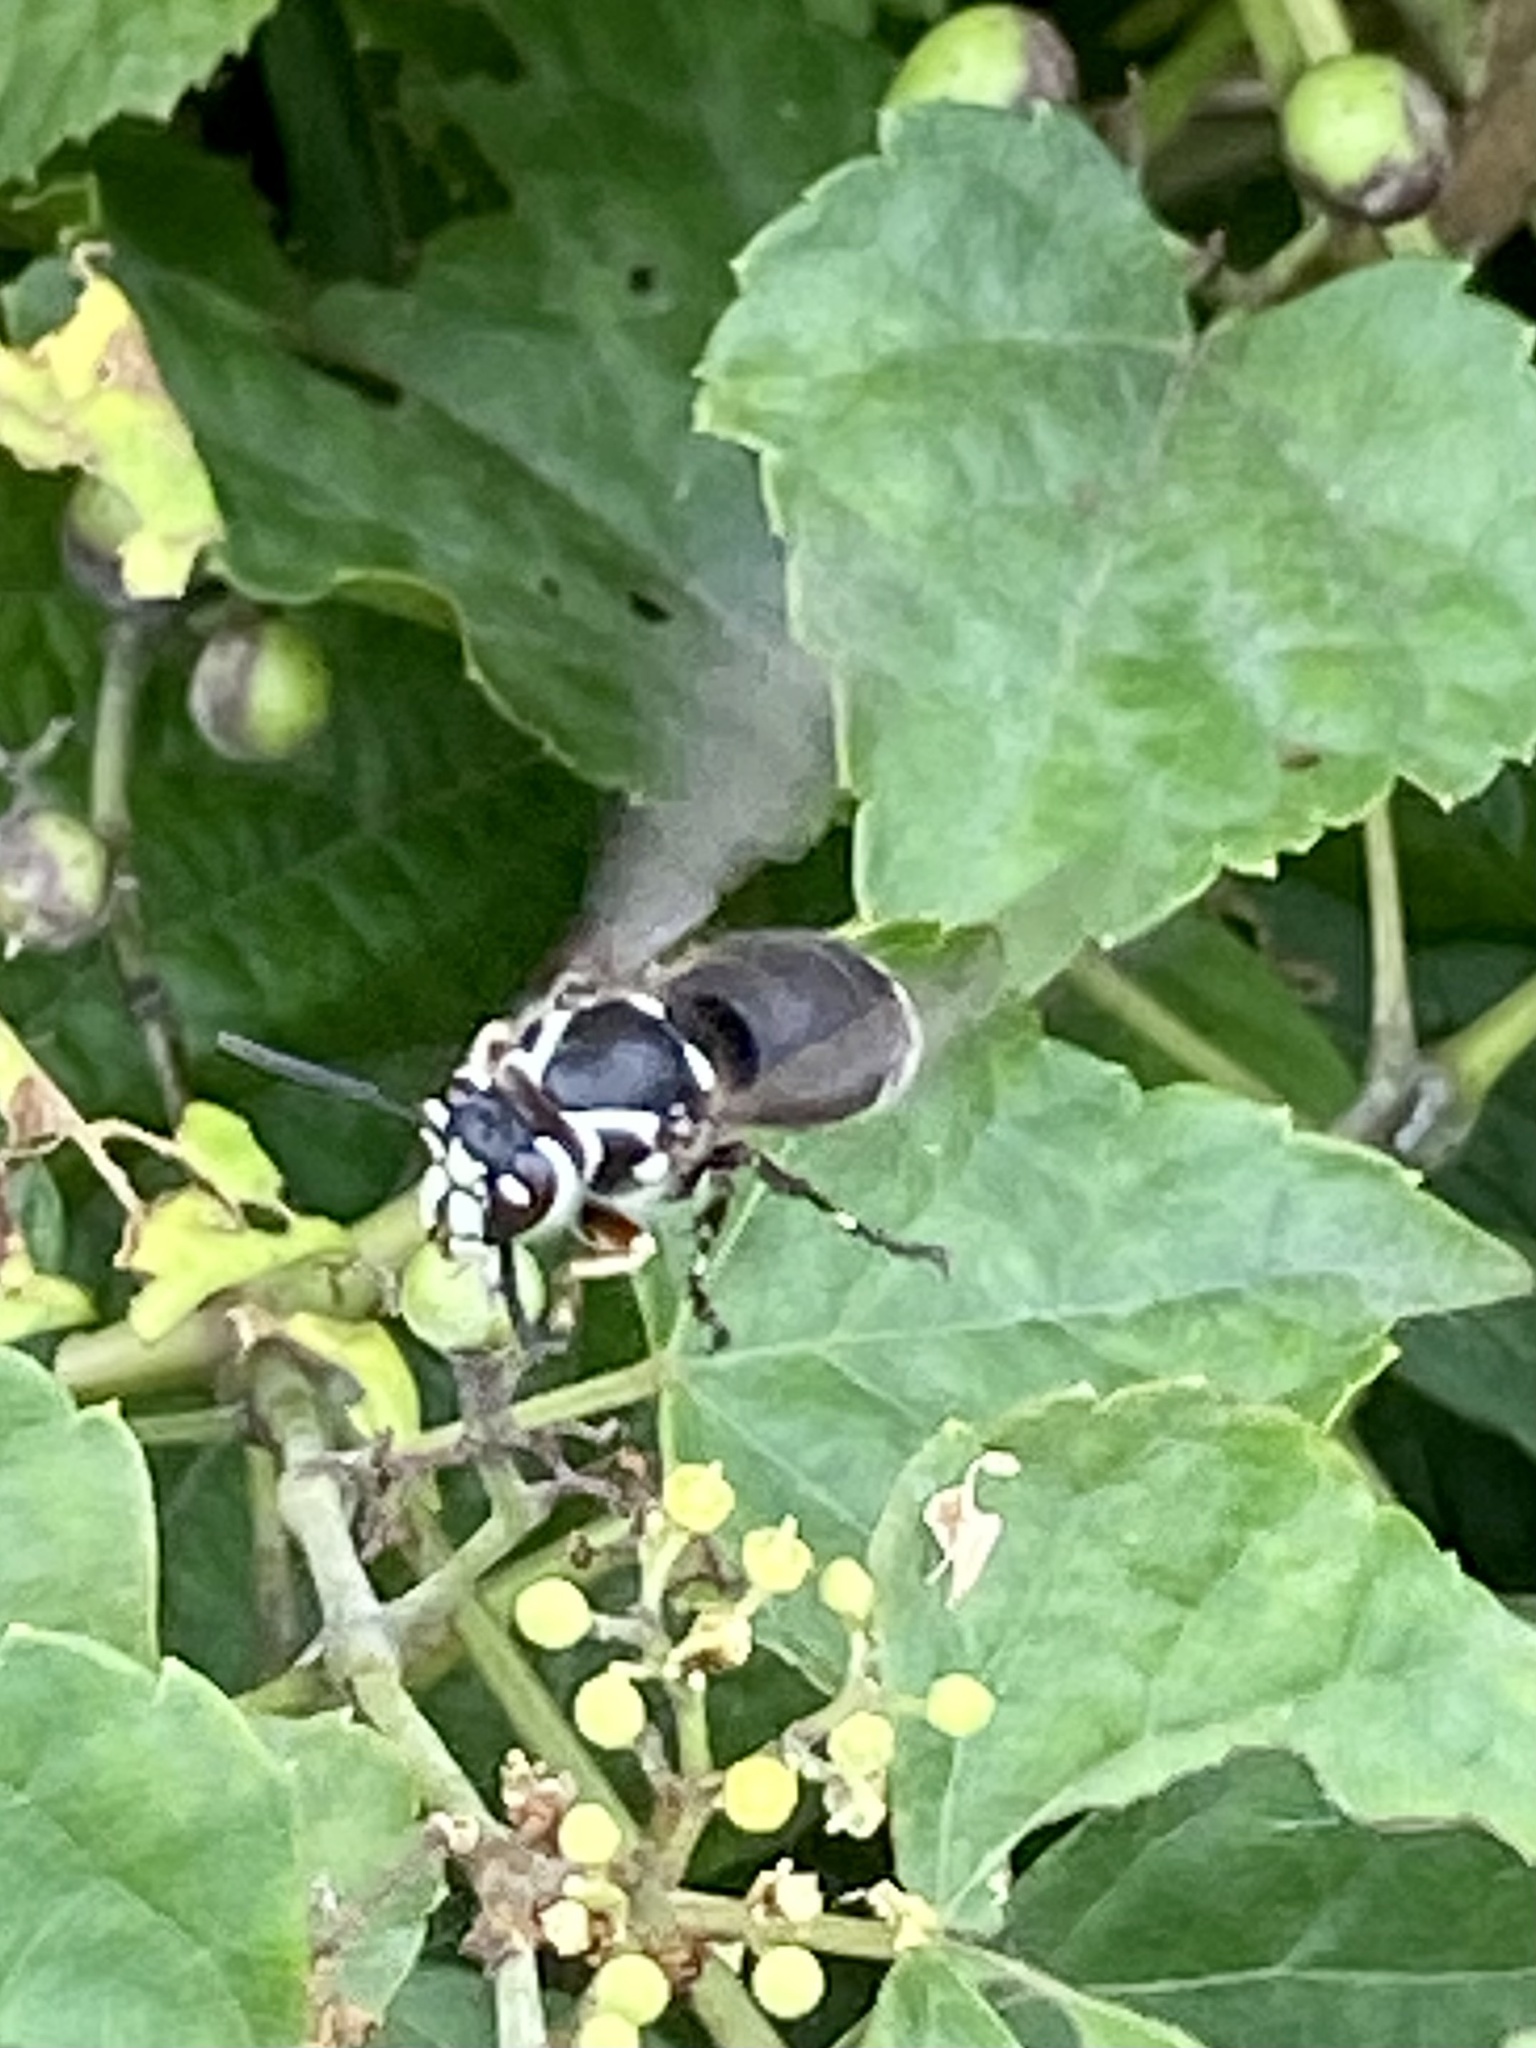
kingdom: Animalia
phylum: Arthropoda
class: Insecta
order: Hymenoptera
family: Vespidae
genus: Dolichovespula
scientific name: Dolichovespula maculata
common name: Bald-faced hornet
